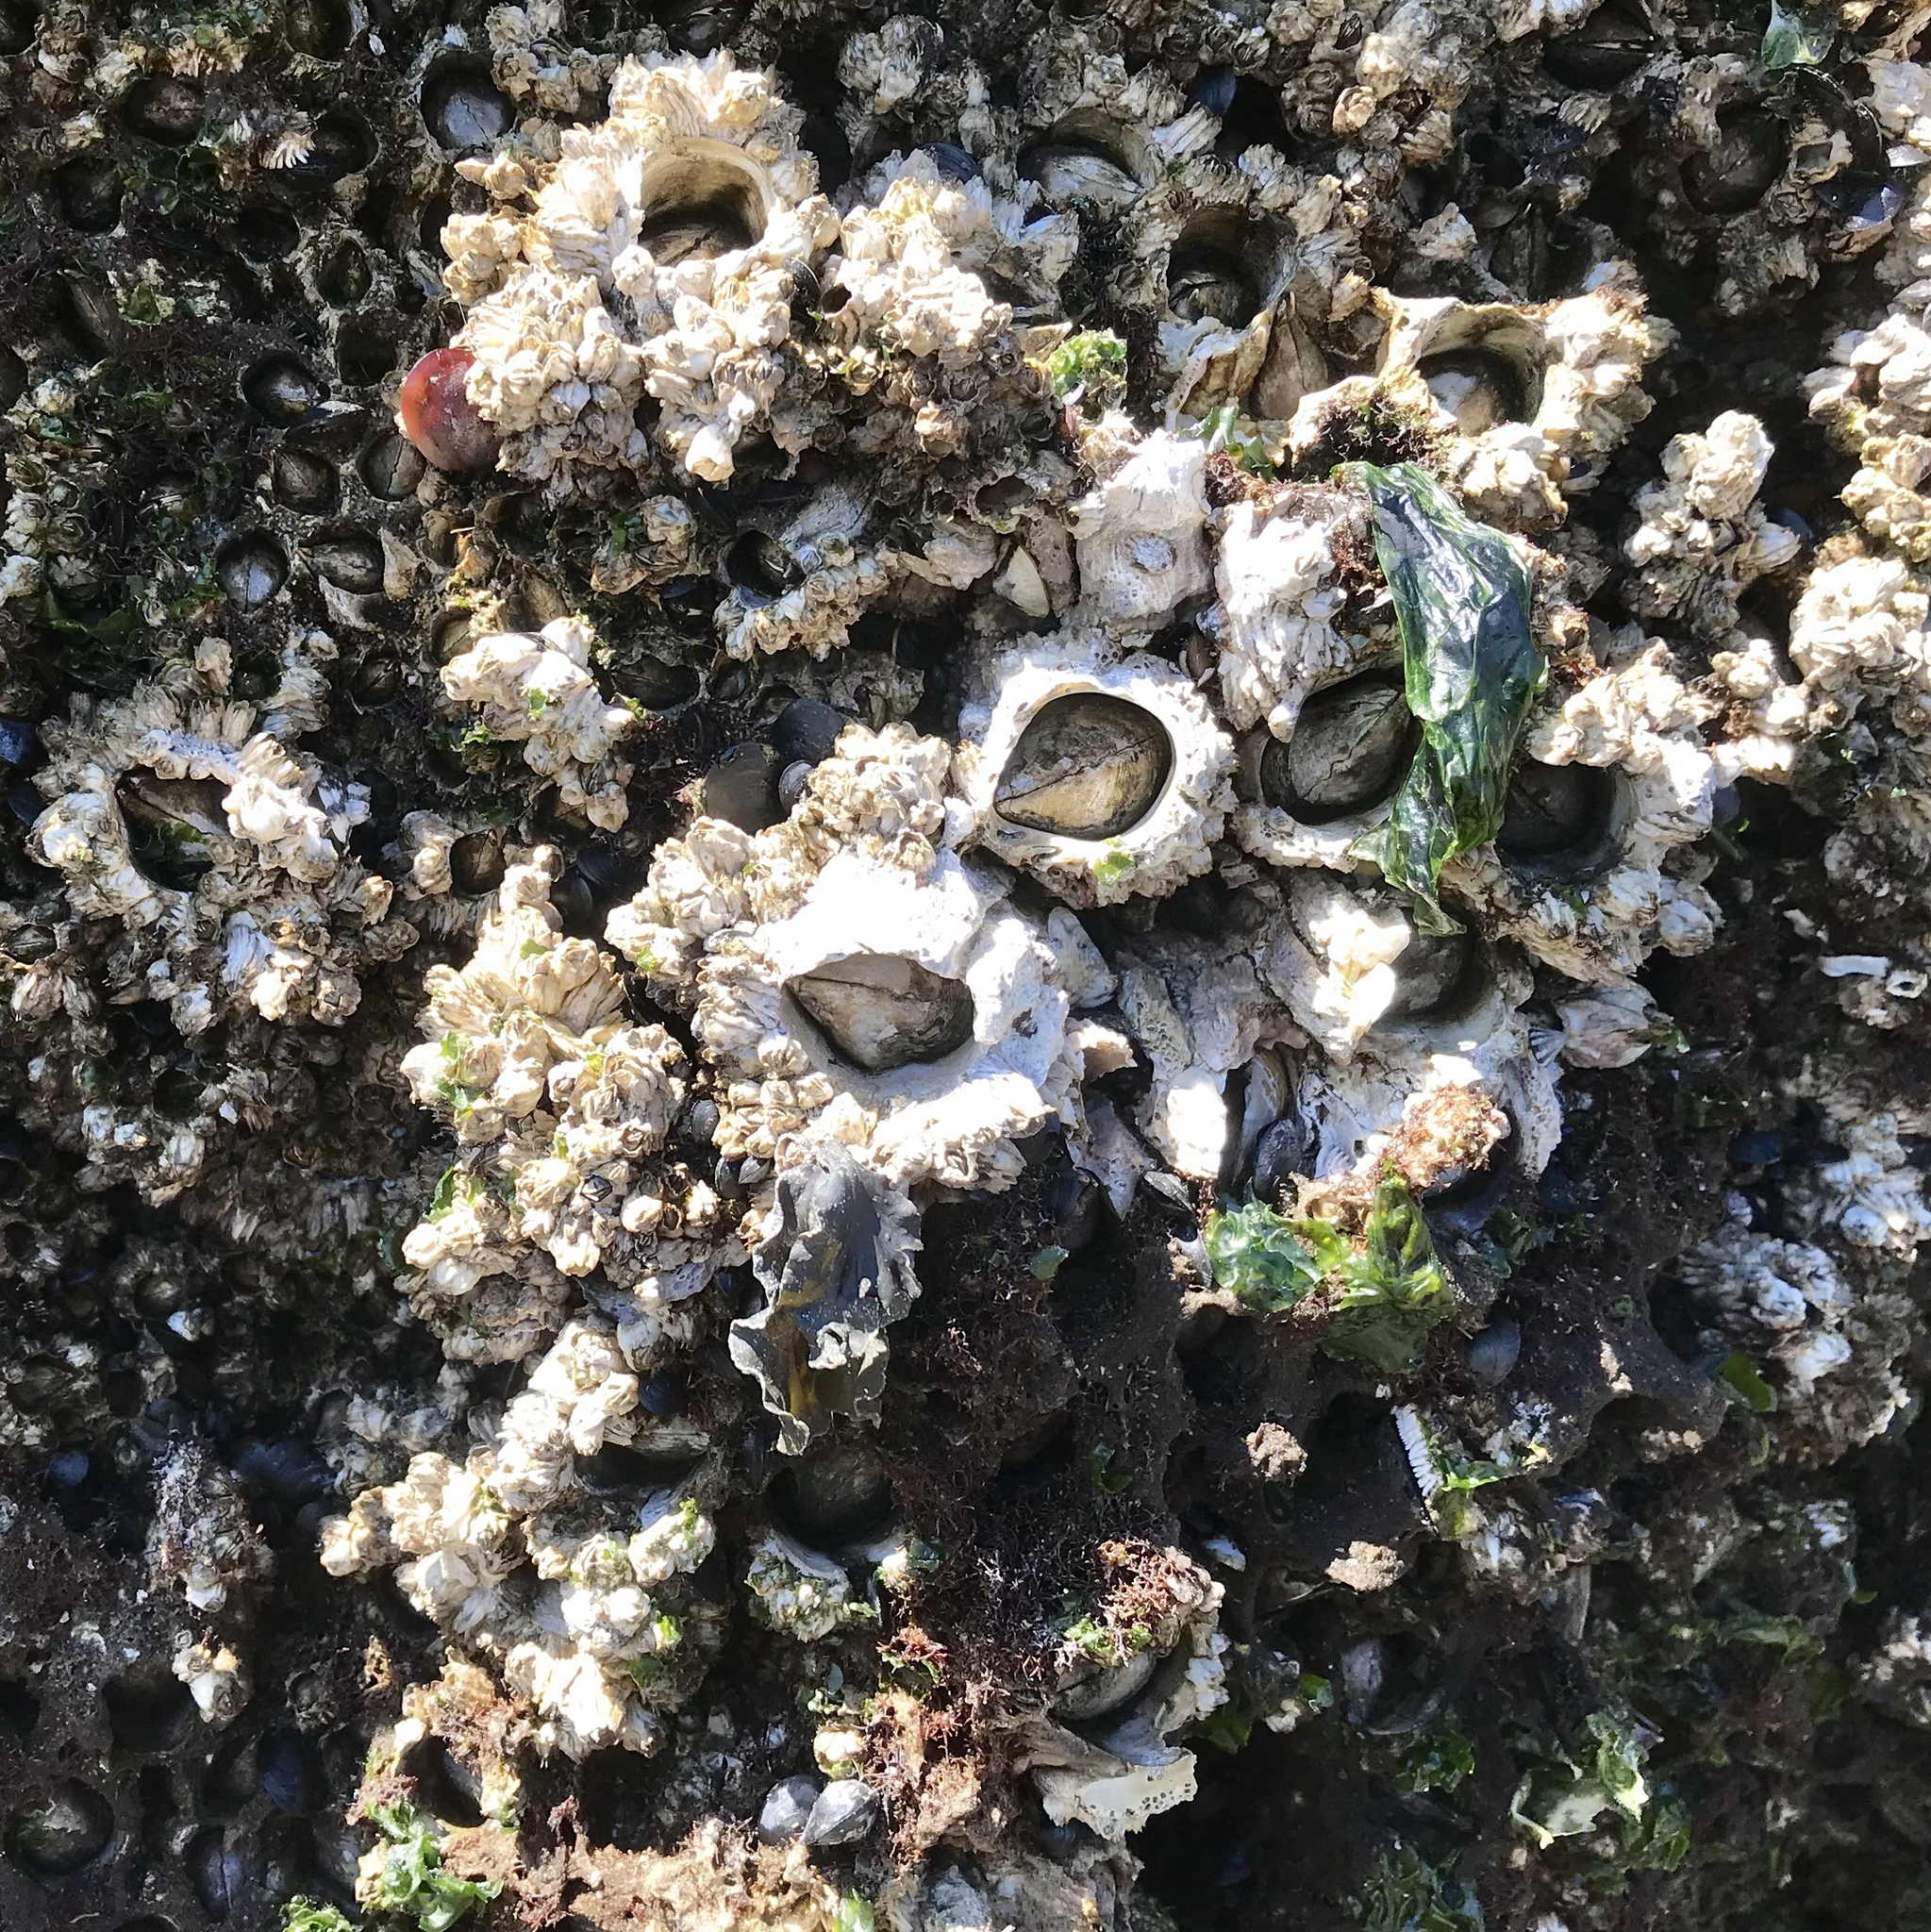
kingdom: Animalia
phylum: Arthropoda
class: Maxillopoda
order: Sessilia
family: Archaeobalanidae
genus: Semibalanus
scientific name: Semibalanus cariosus
